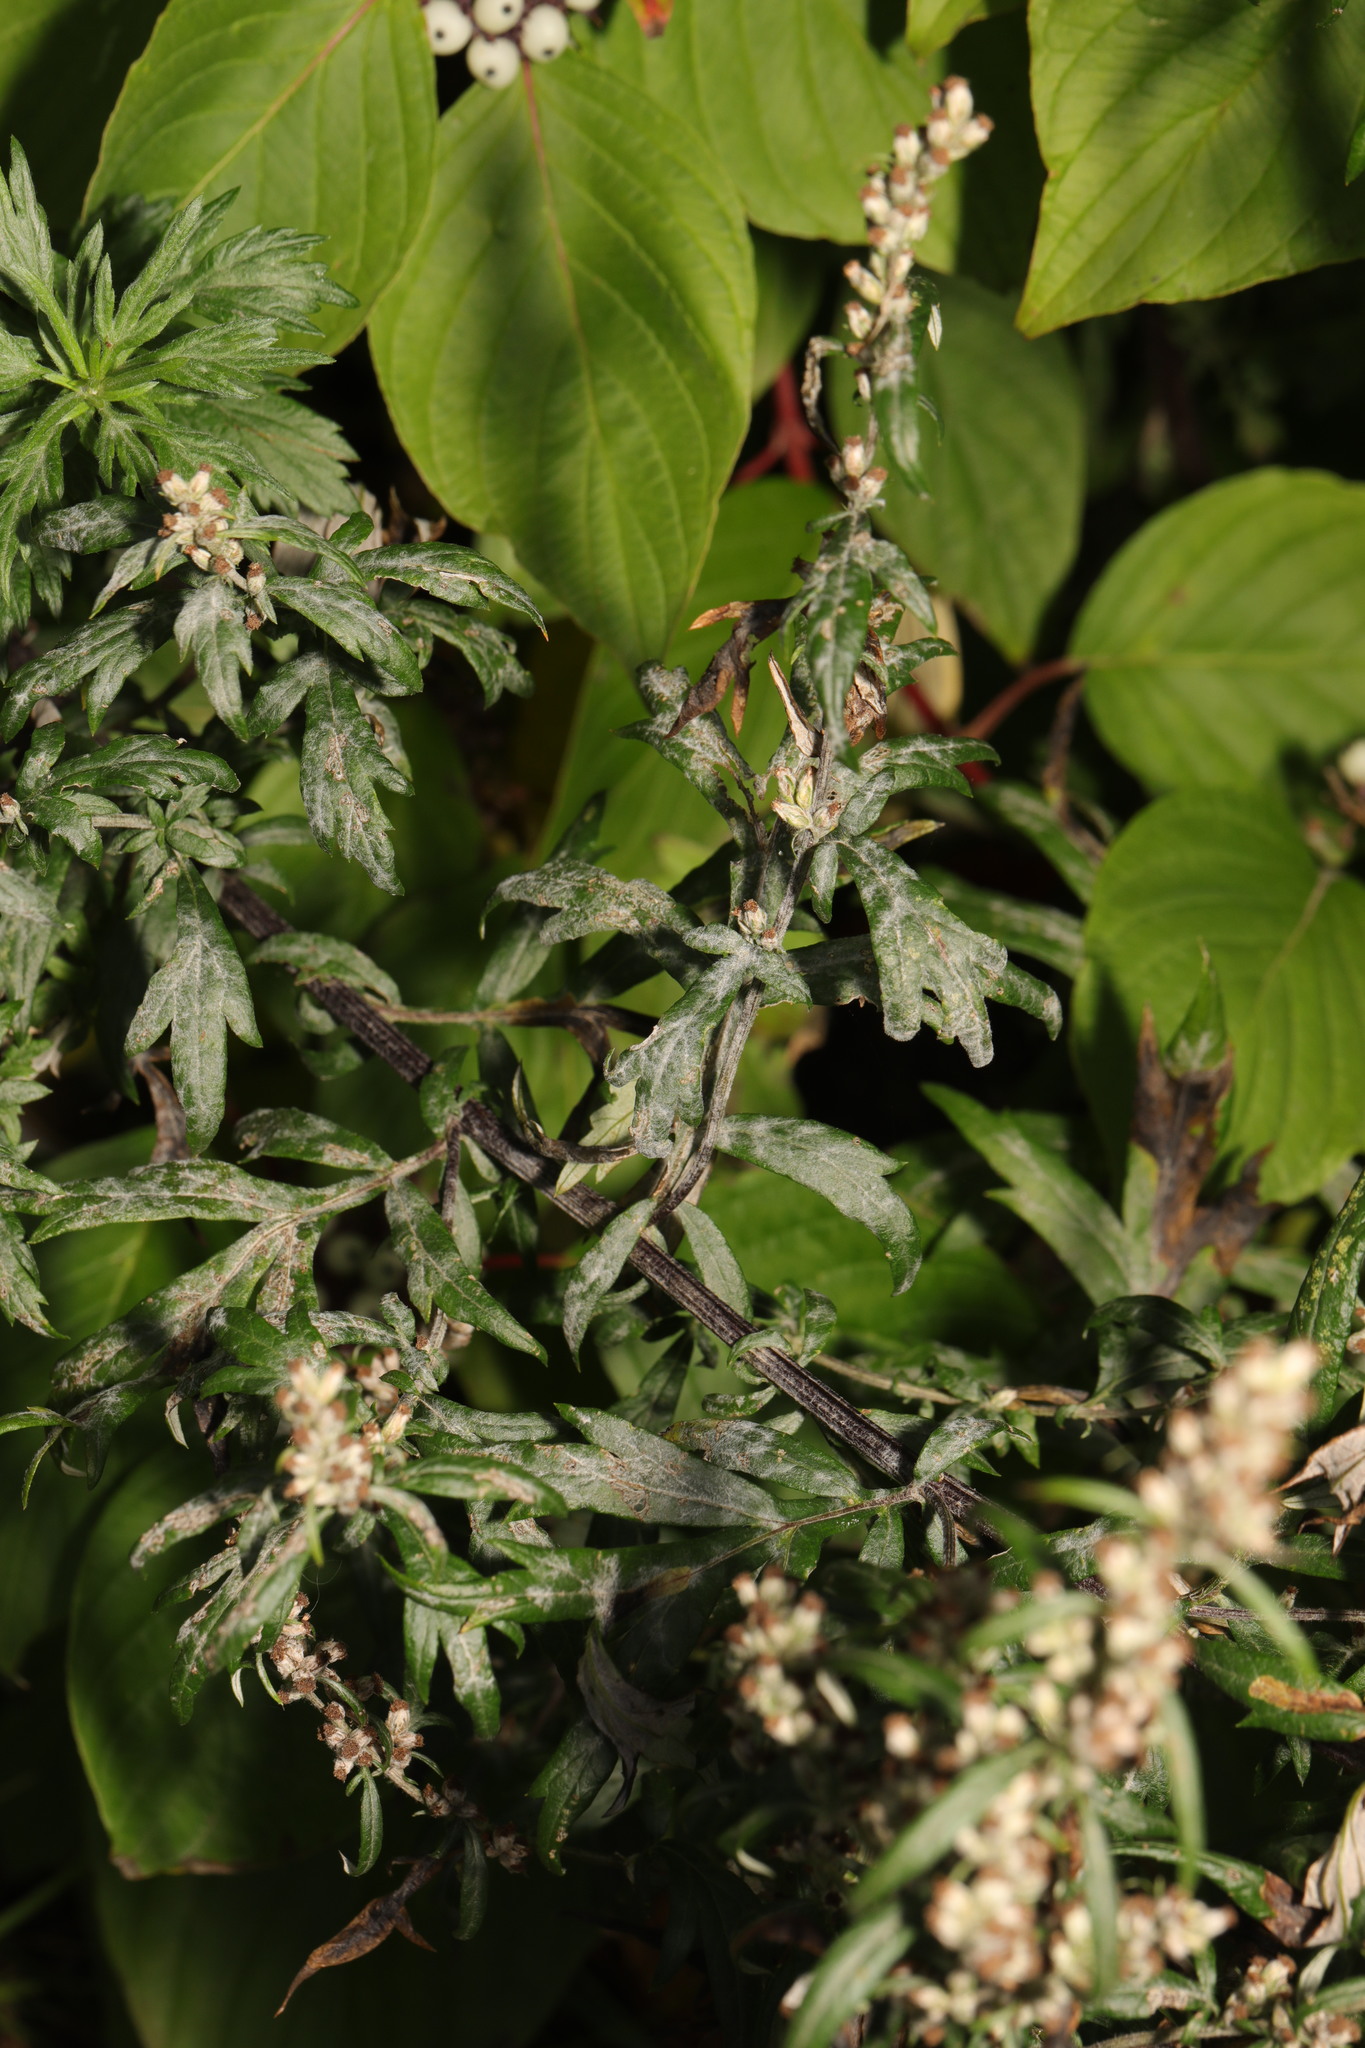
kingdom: Plantae
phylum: Tracheophyta
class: Magnoliopsida
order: Asterales
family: Asteraceae
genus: Artemisia
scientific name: Artemisia vulgaris
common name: Mugwort
